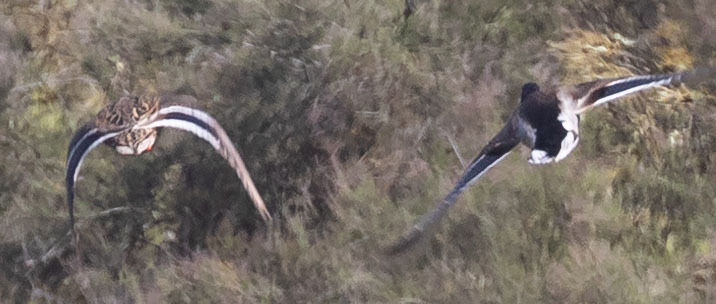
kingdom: Animalia
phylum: Chordata
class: Aves
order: Anseriformes
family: Anatidae
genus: Anas
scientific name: Anas platyrhynchos
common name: Mallard
